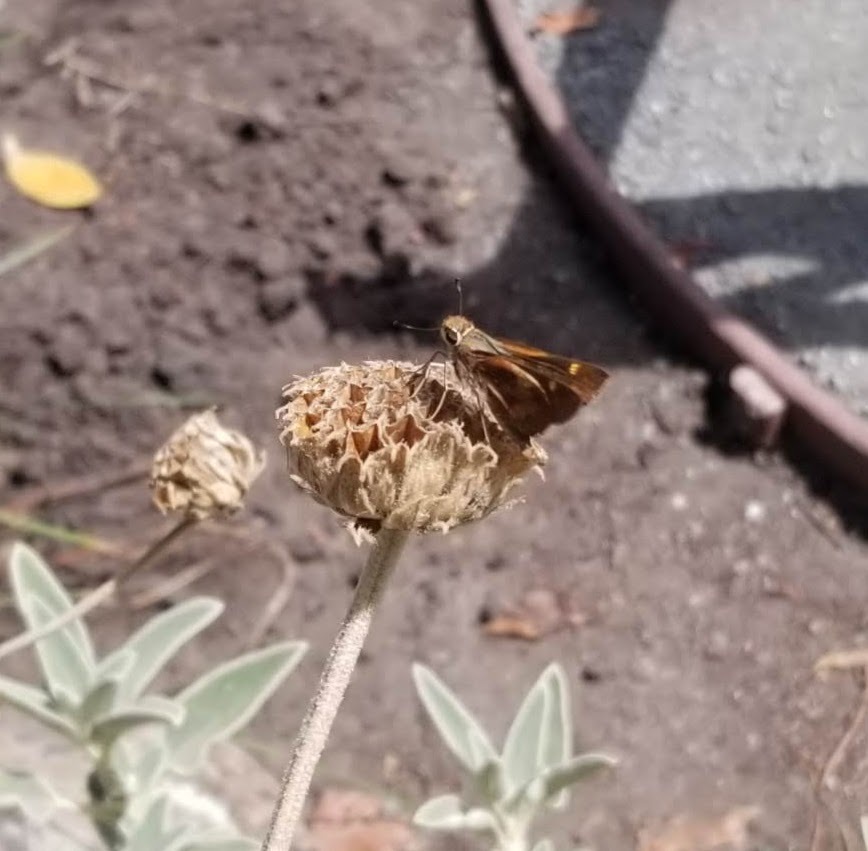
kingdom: Animalia
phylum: Arthropoda
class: Insecta
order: Lepidoptera
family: Hesperiidae
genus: Lon
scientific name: Lon melane
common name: Umber skipper
